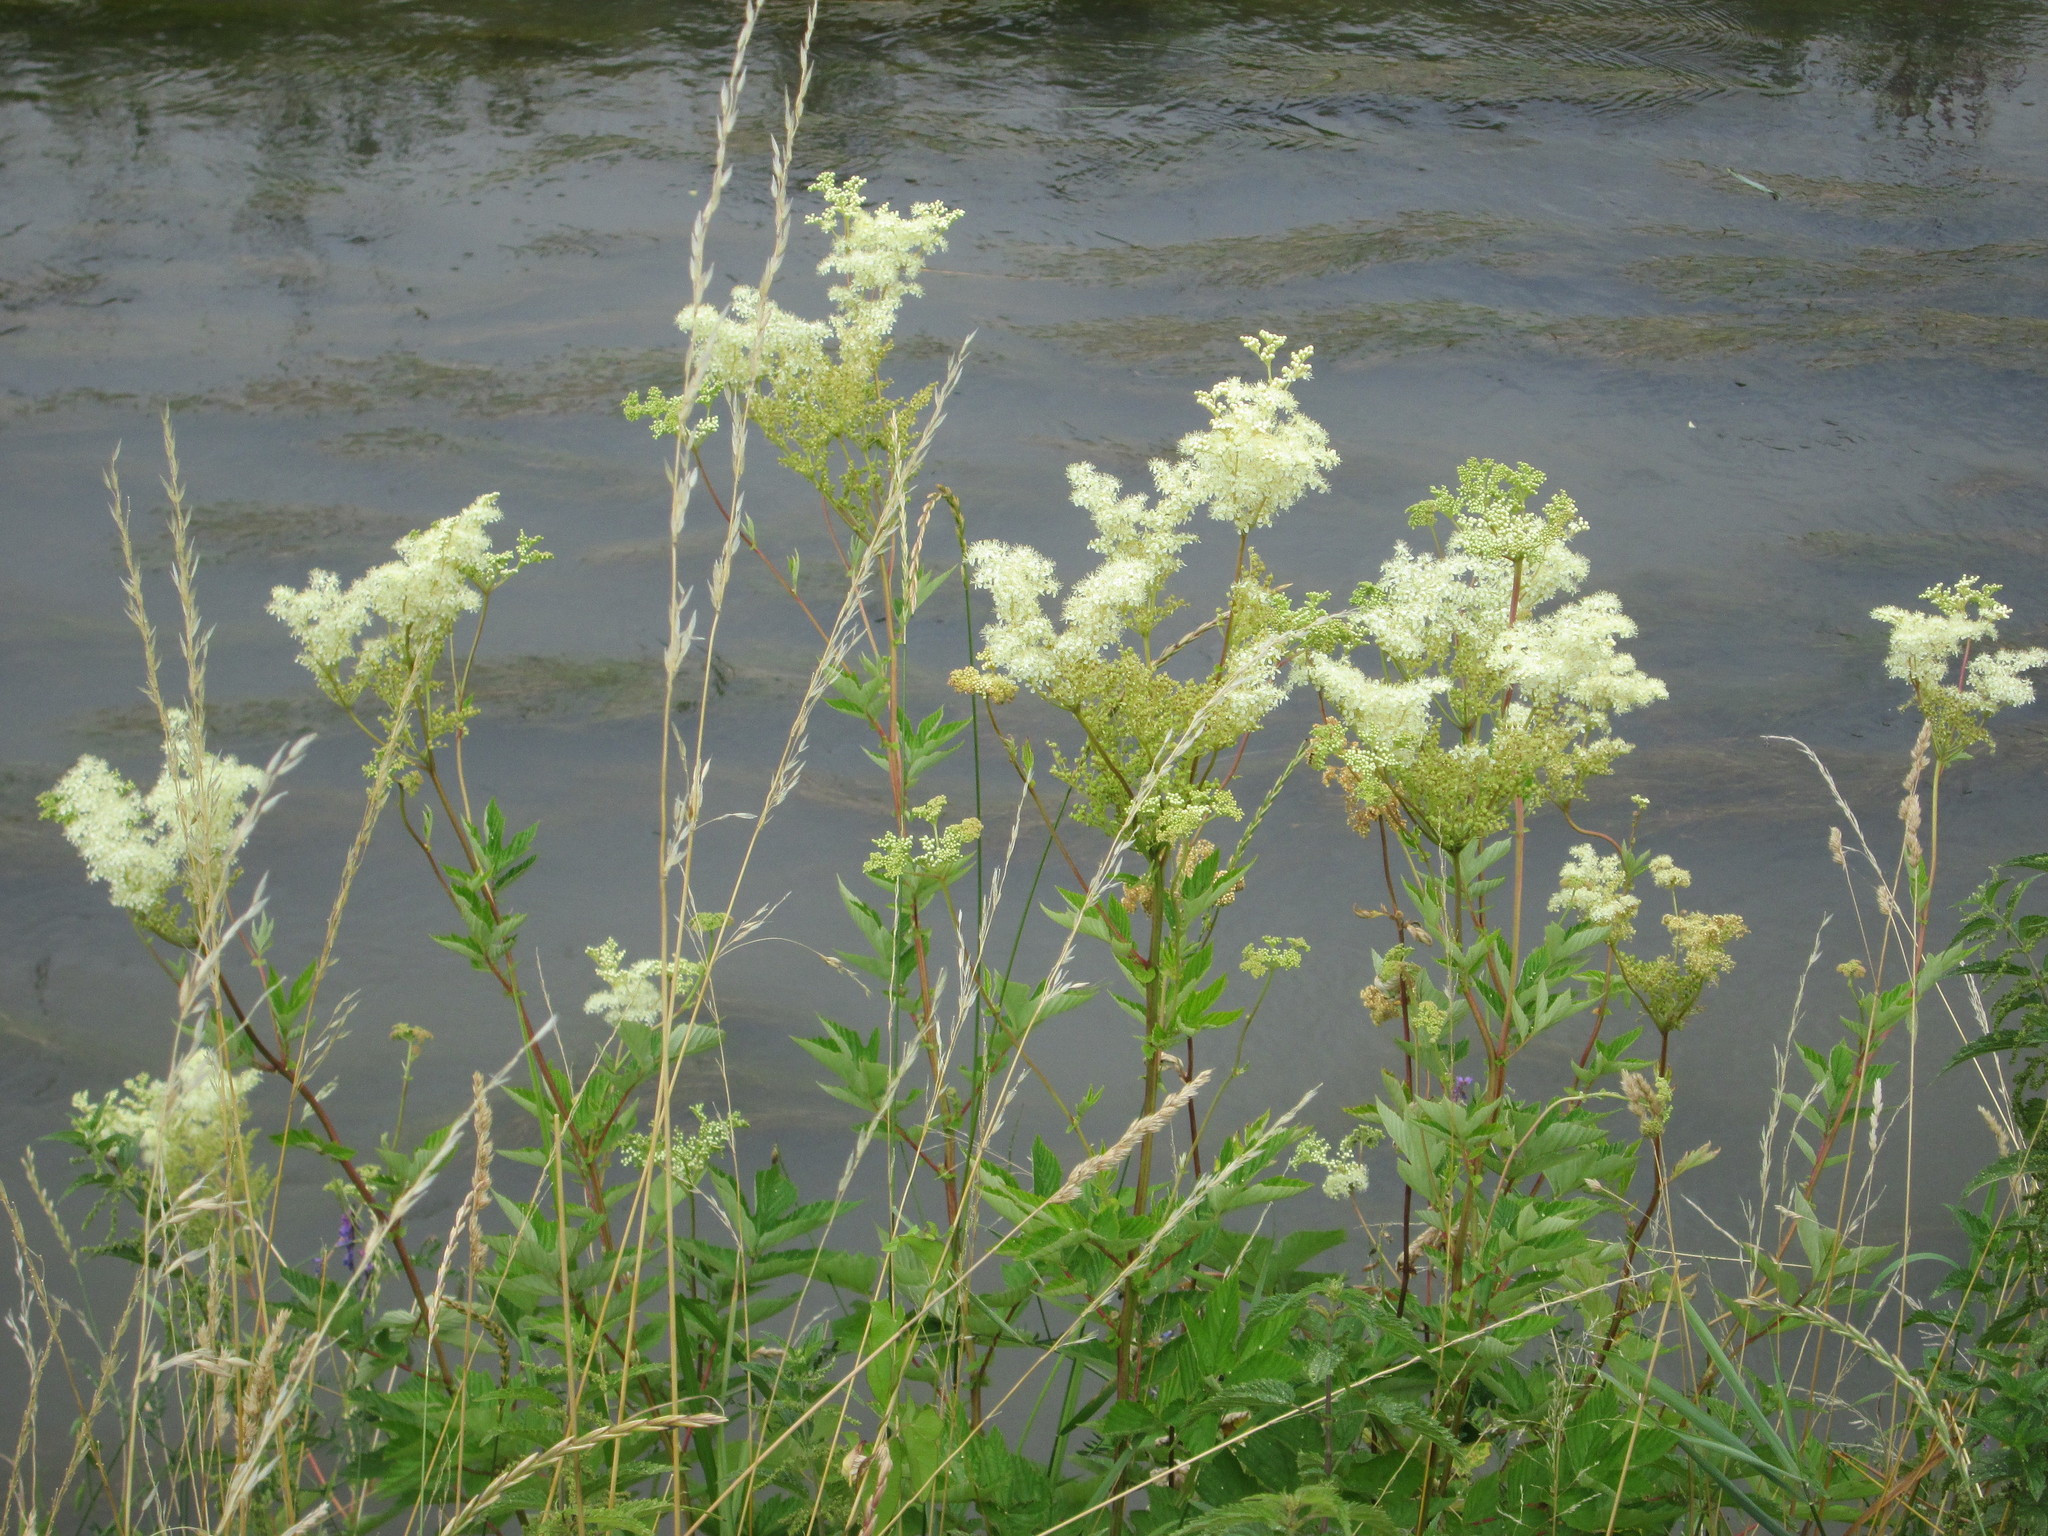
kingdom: Plantae
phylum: Tracheophyta
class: Magnoliopsida
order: Rosales
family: Rosaceae
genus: Filipendula
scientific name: Filipendula ulmaria
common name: Meadowsweet
